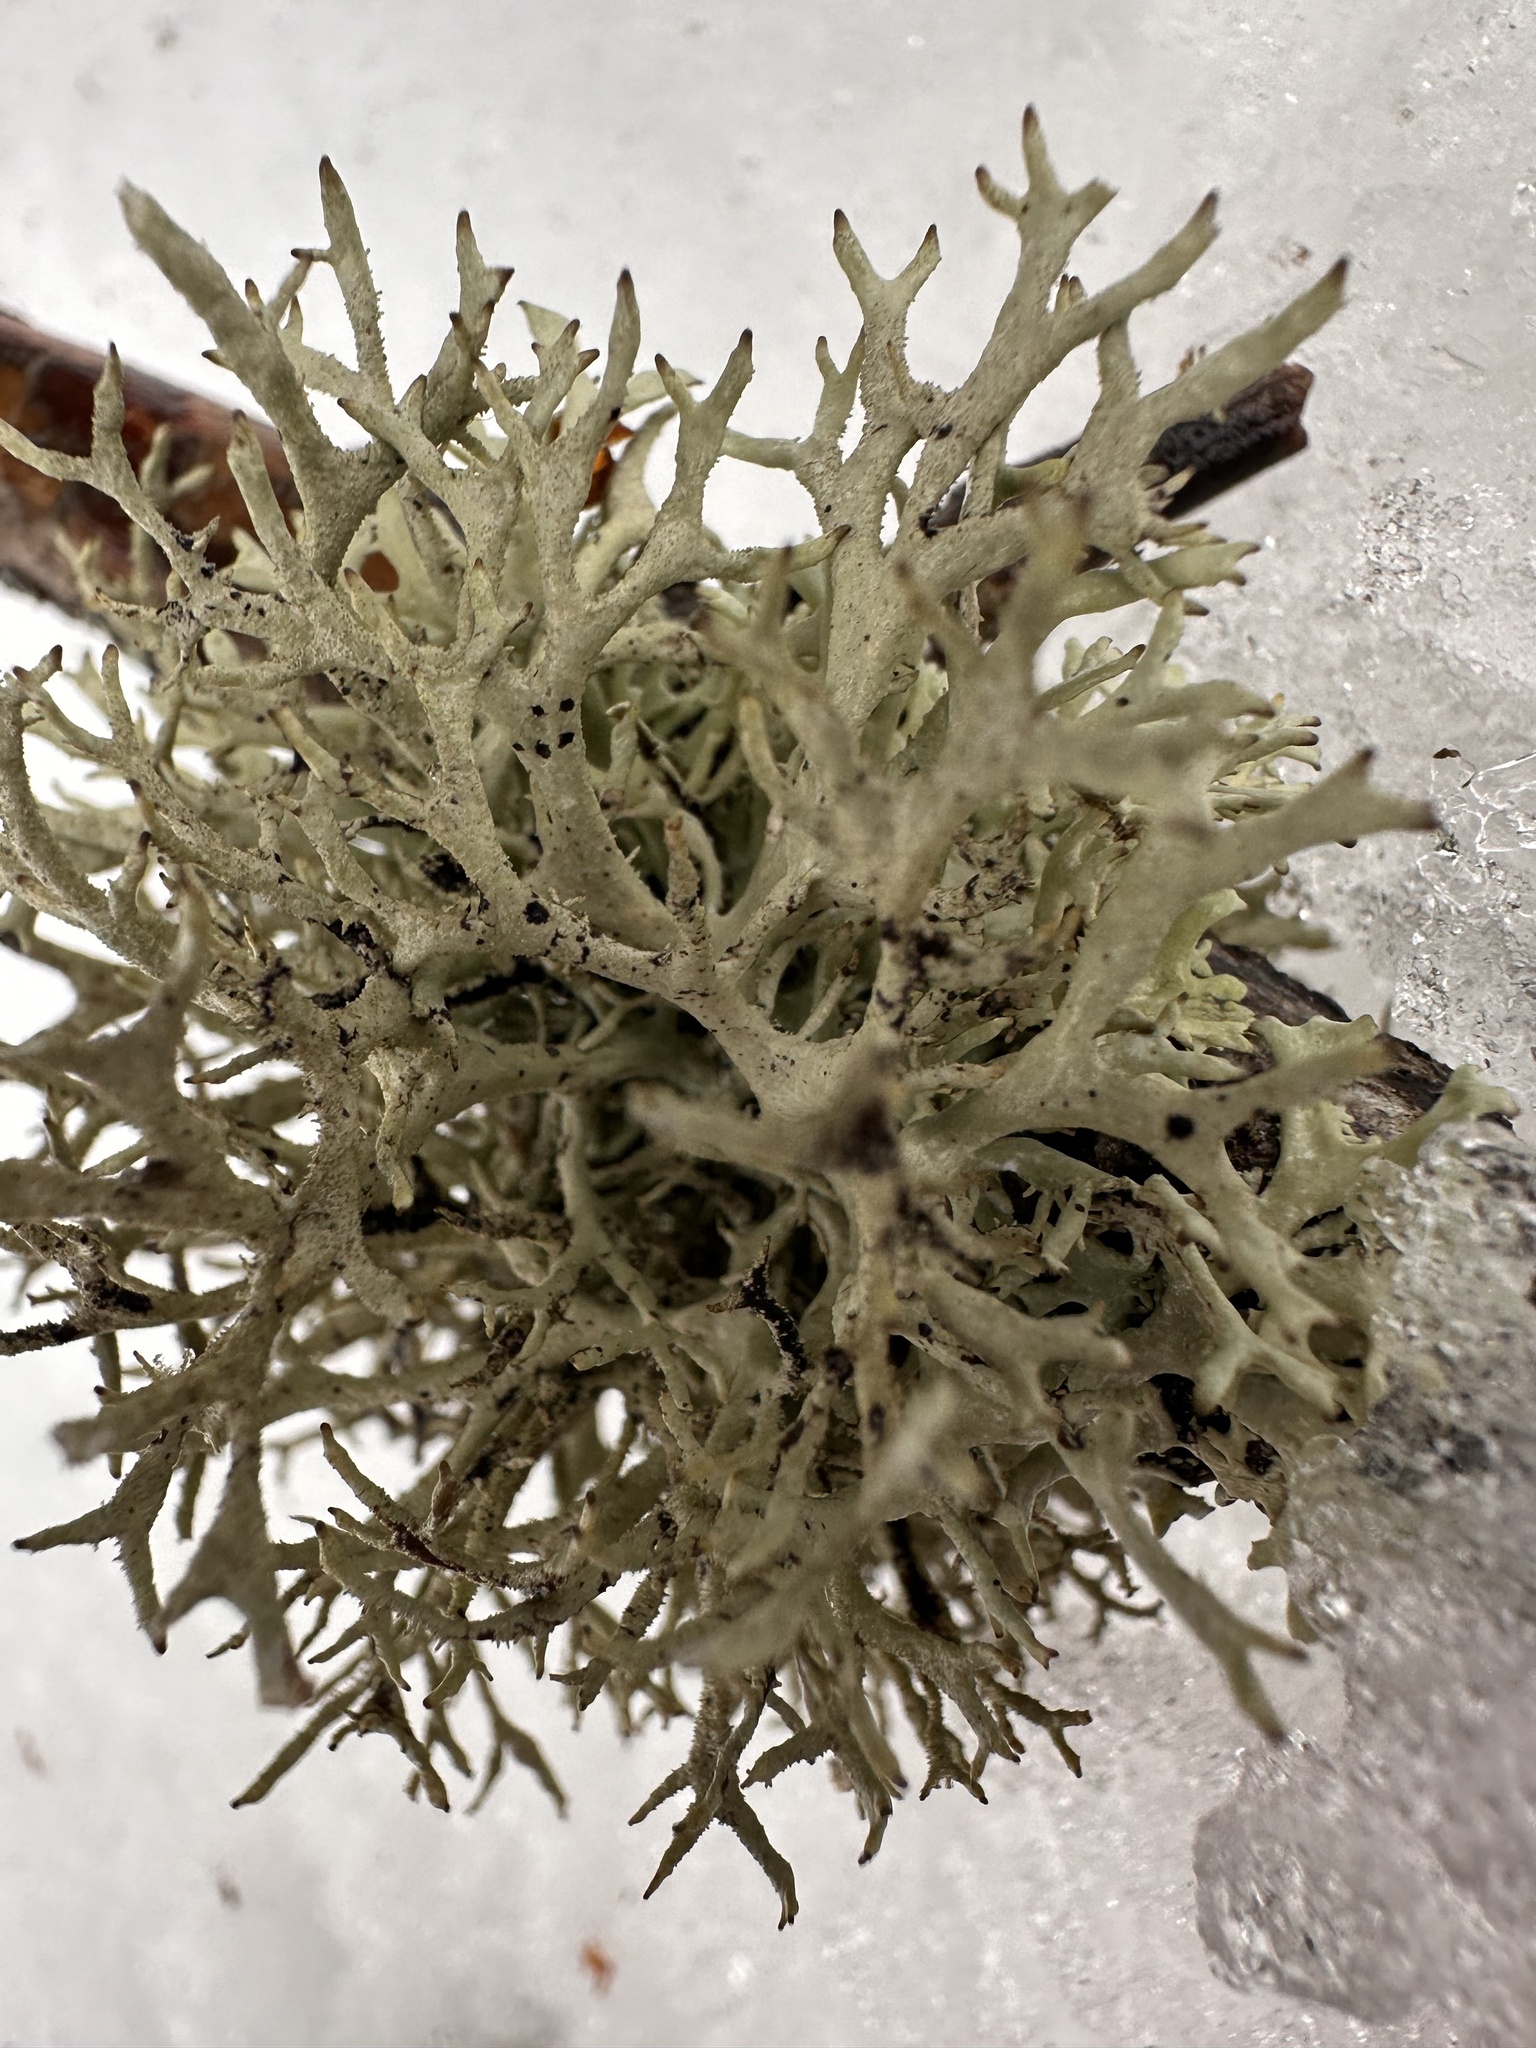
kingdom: Fungi
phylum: Ascomycota
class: Lecanoromycetes
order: Lecanorales
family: Parmeliaceae
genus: Pseudevernia
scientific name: Pseudevernia furfuracea
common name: Tree moss
